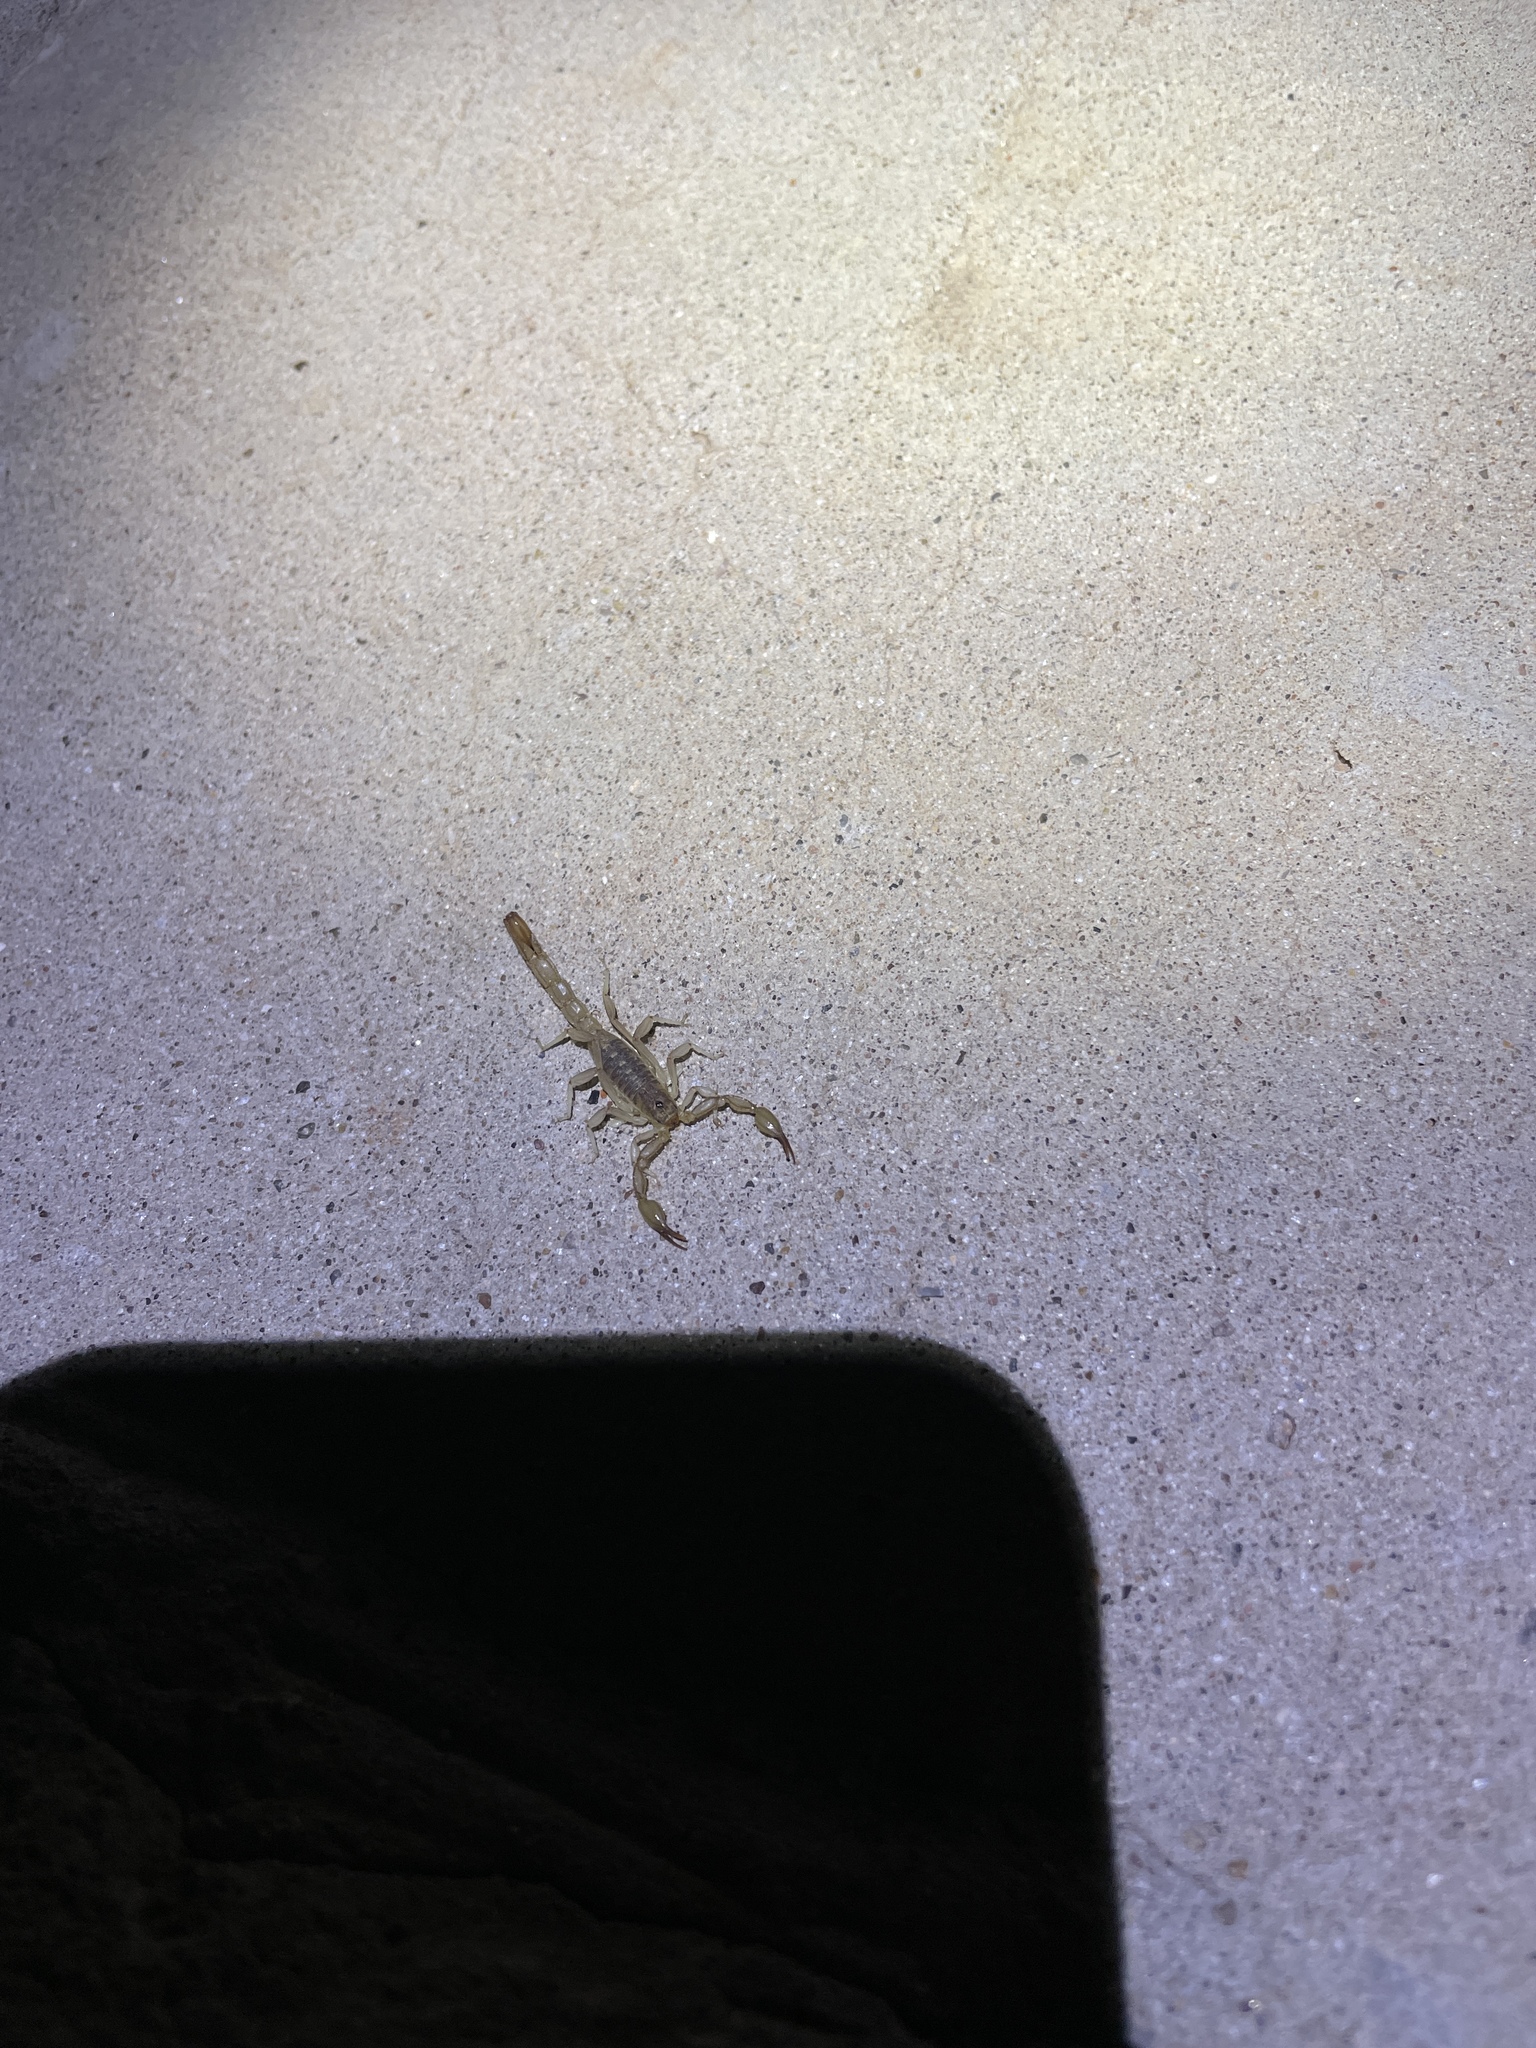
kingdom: Animalia
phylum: Arthropoda
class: Arachnida
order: Scorpiones
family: Vaejovidae
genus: Chihuahuanus
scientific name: Chihuahuanus coahuilae
